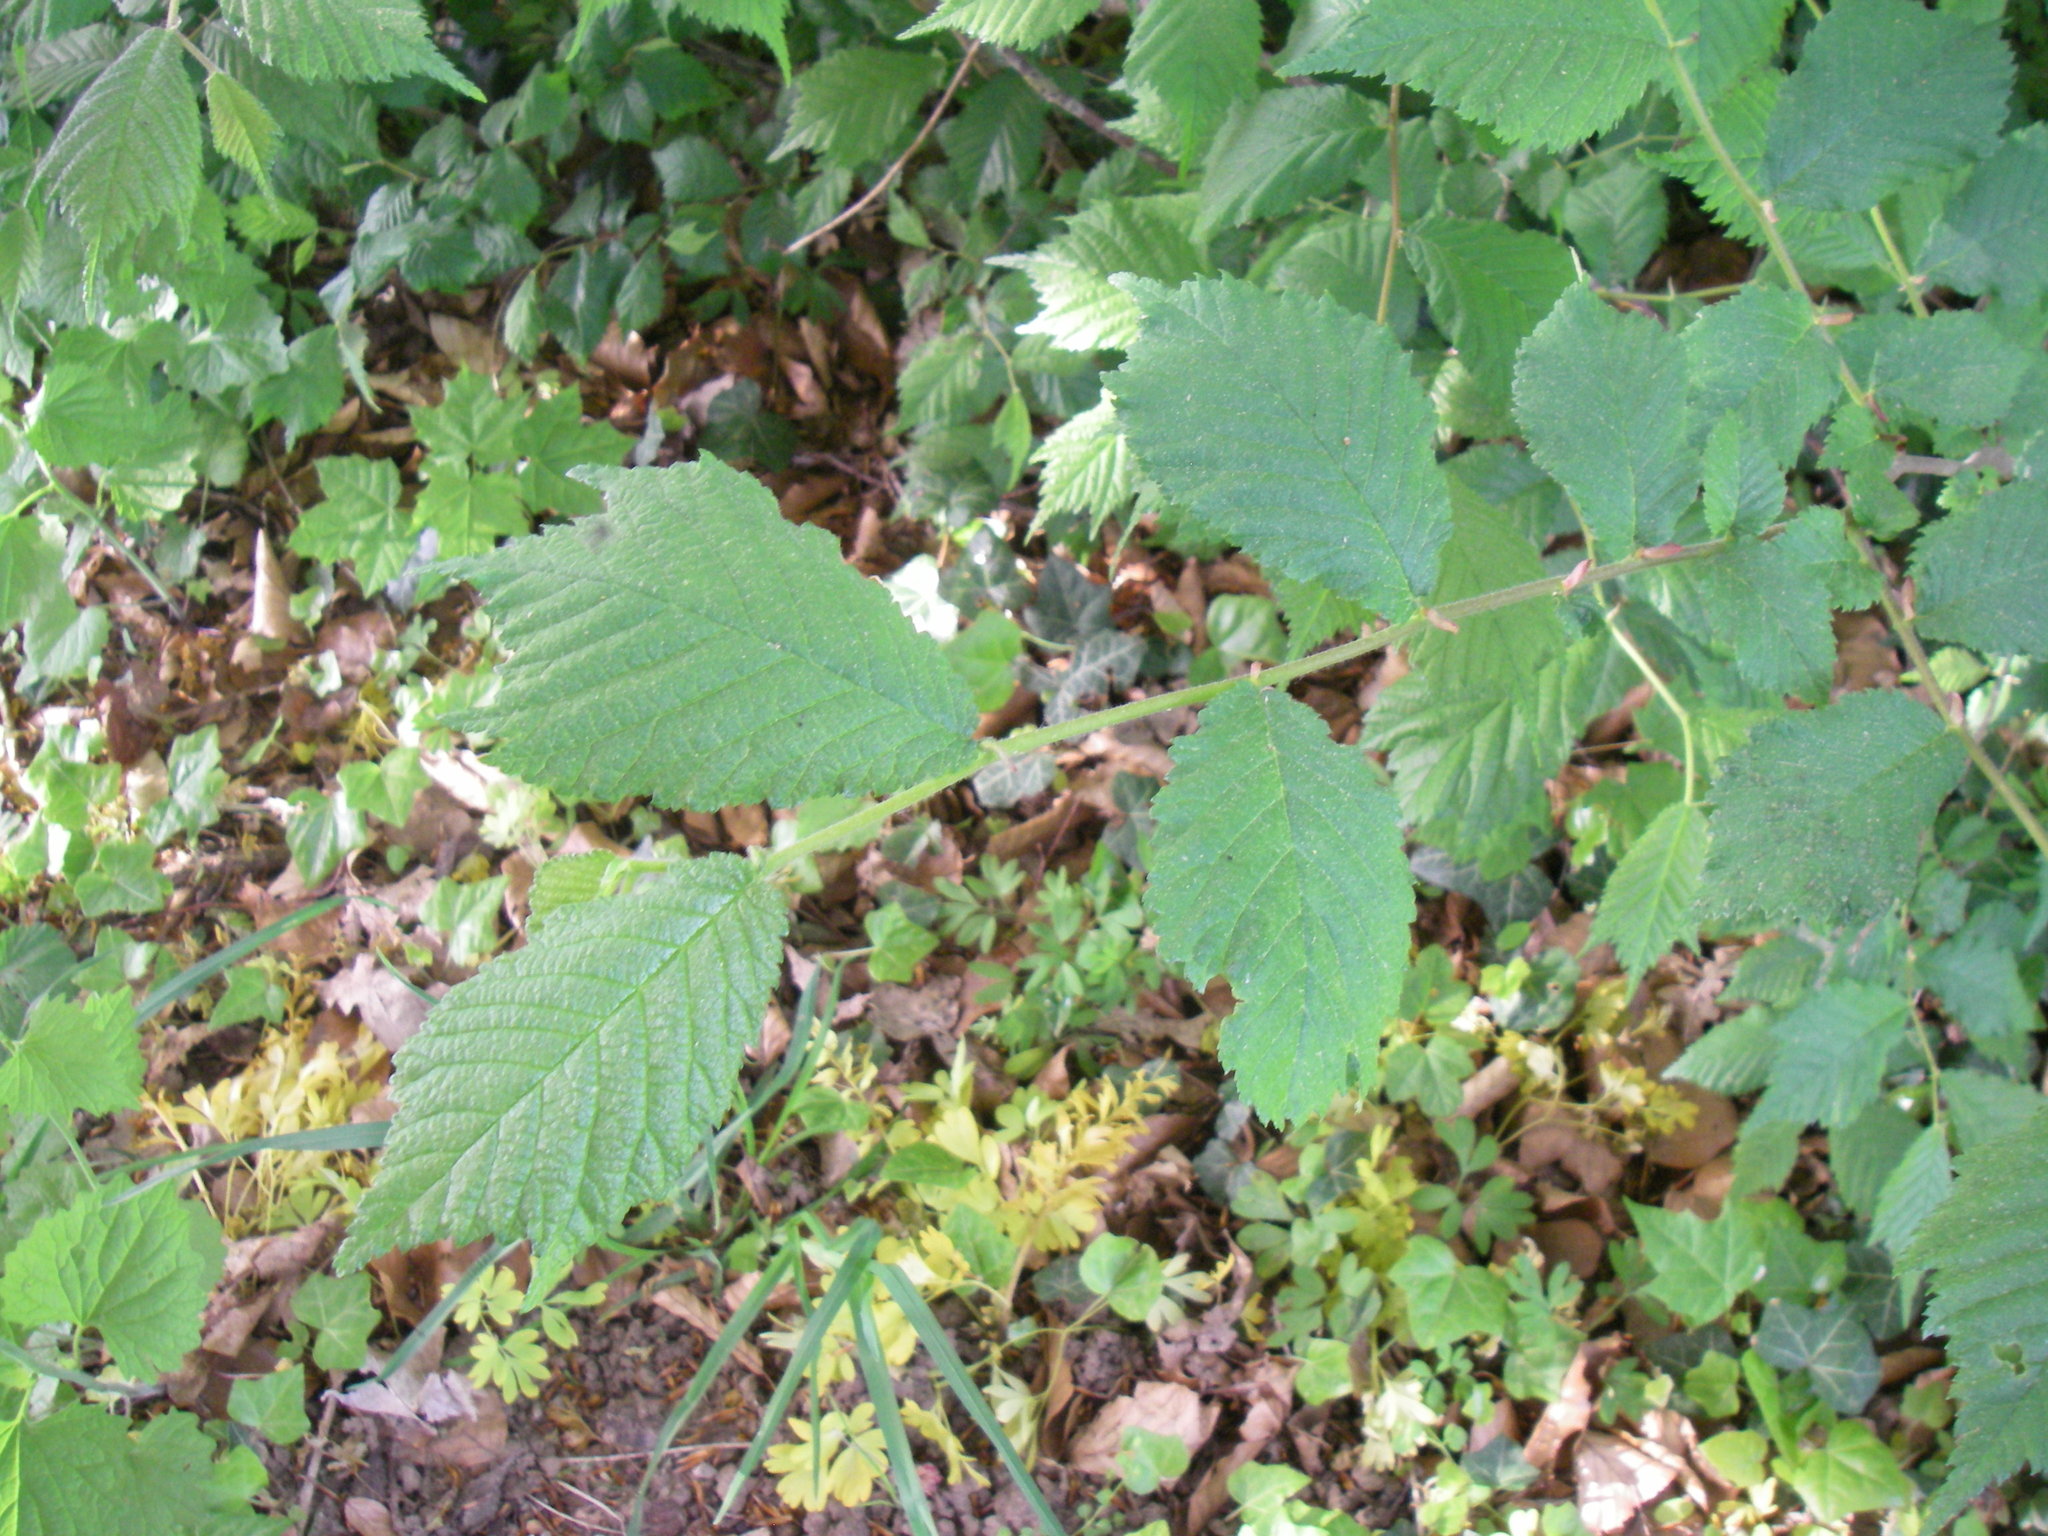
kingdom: Plantae
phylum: Tracheophyta
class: Magnoliopsida
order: Rosales
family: Ulmaceae
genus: Ulmus
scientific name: Ulmus glabra
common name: Wych elm
